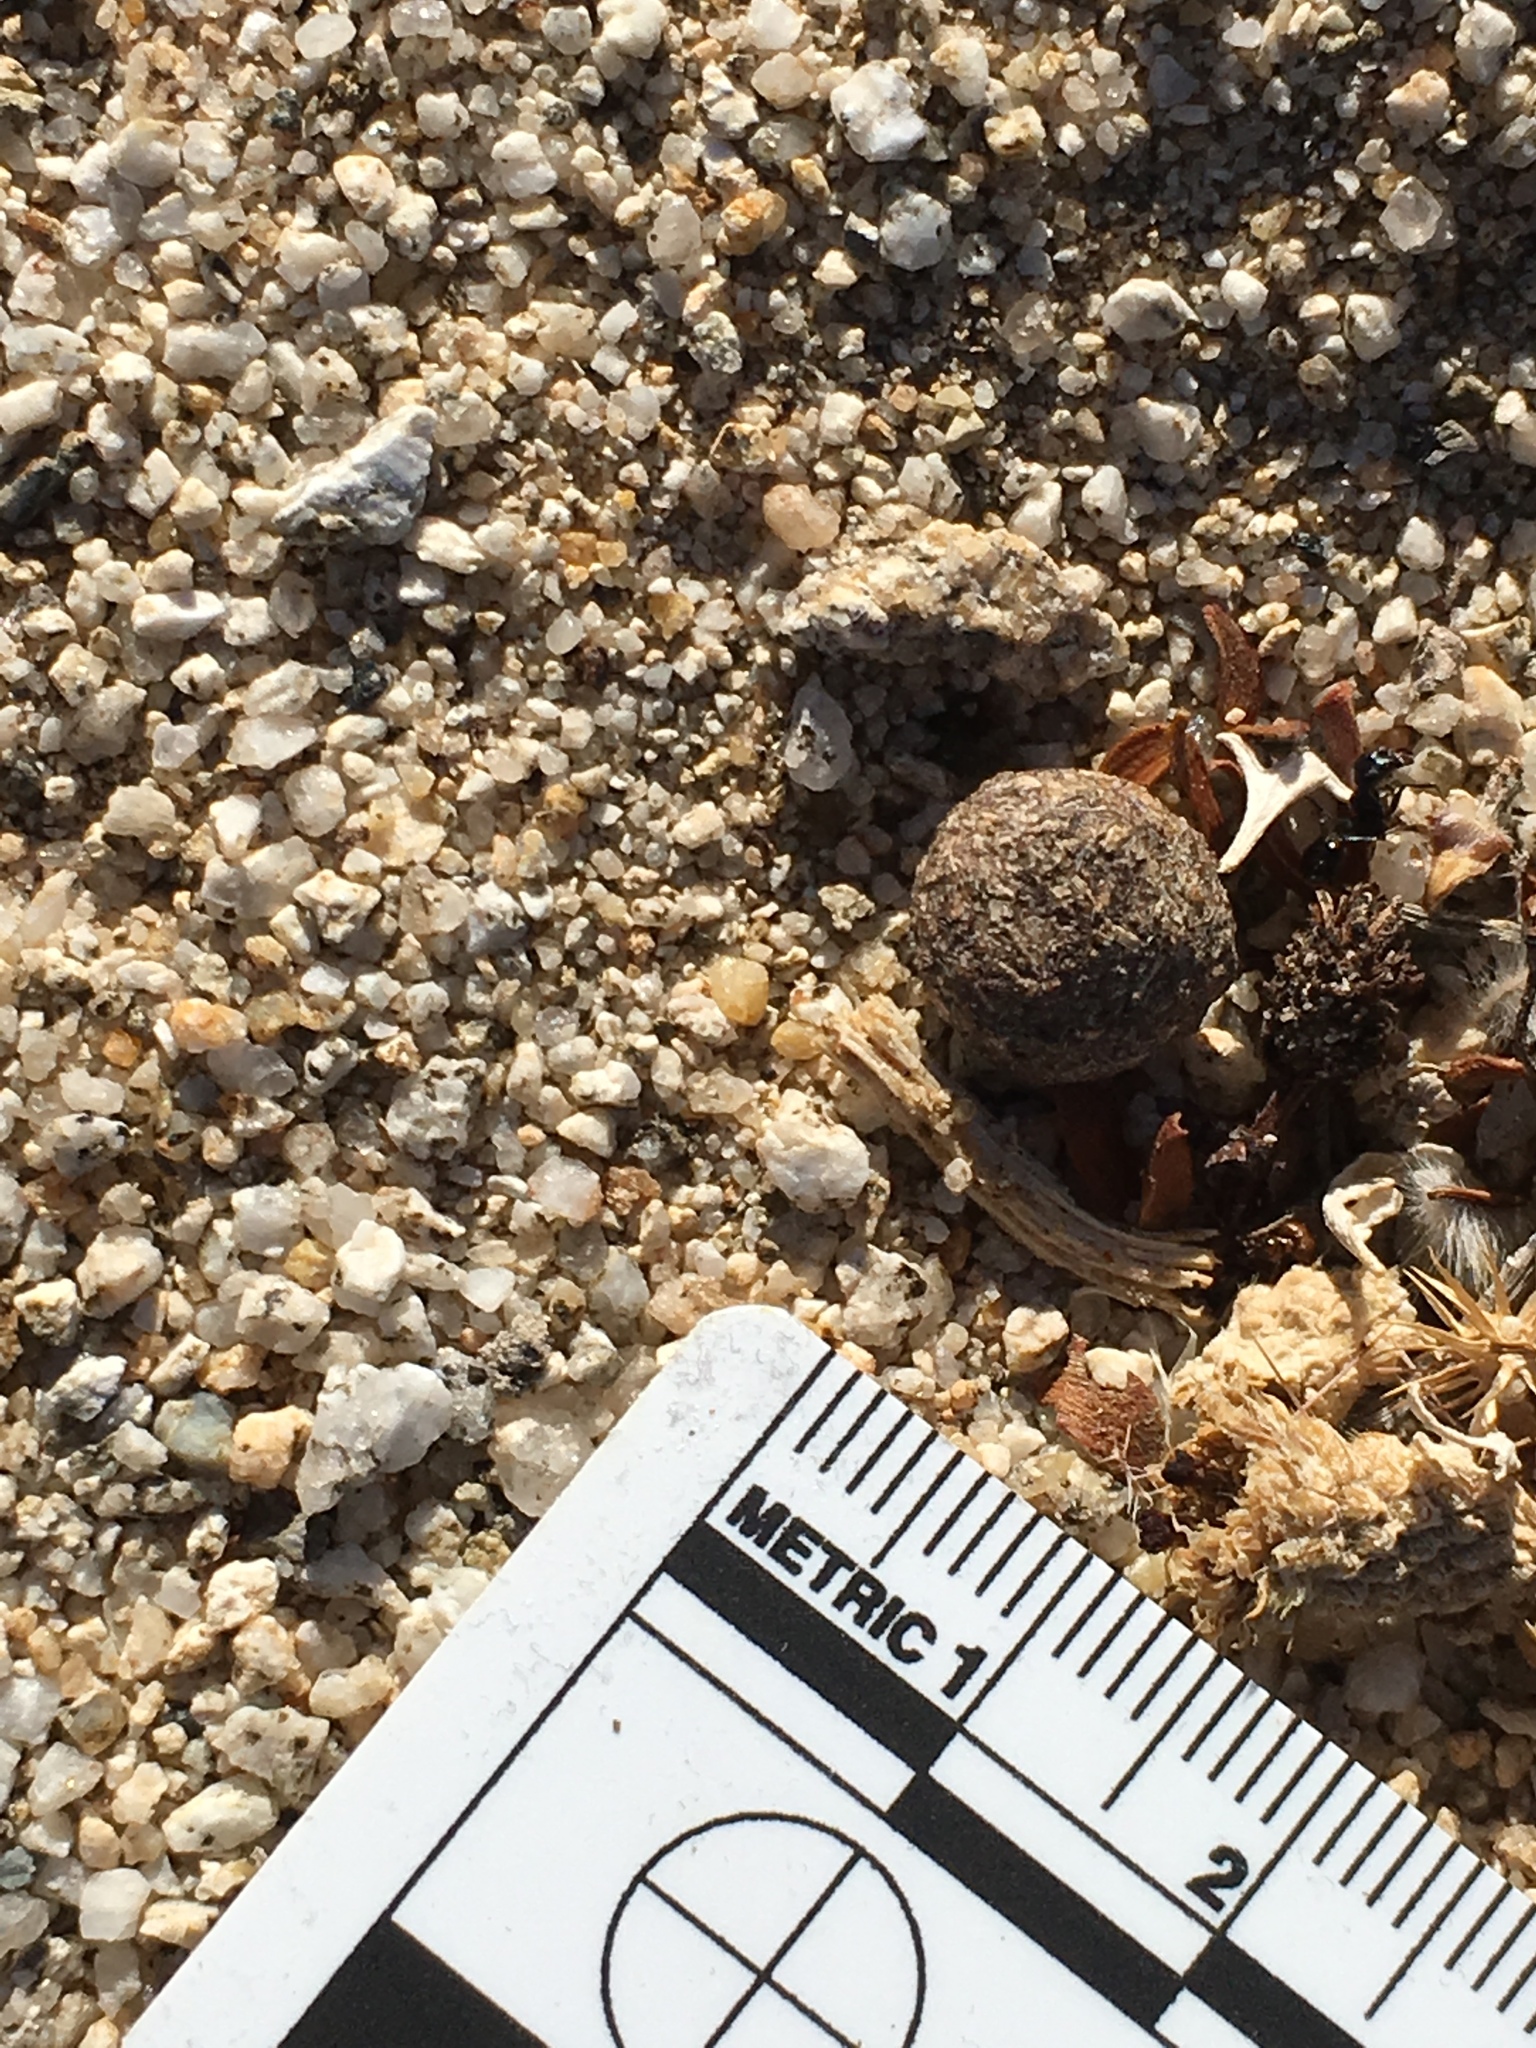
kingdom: Animalia
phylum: Chordata
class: Mammalia
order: Lagomorpha
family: Leporidae
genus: Lepus
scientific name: Lepus californicus
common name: Black-tailed jackrabbit
